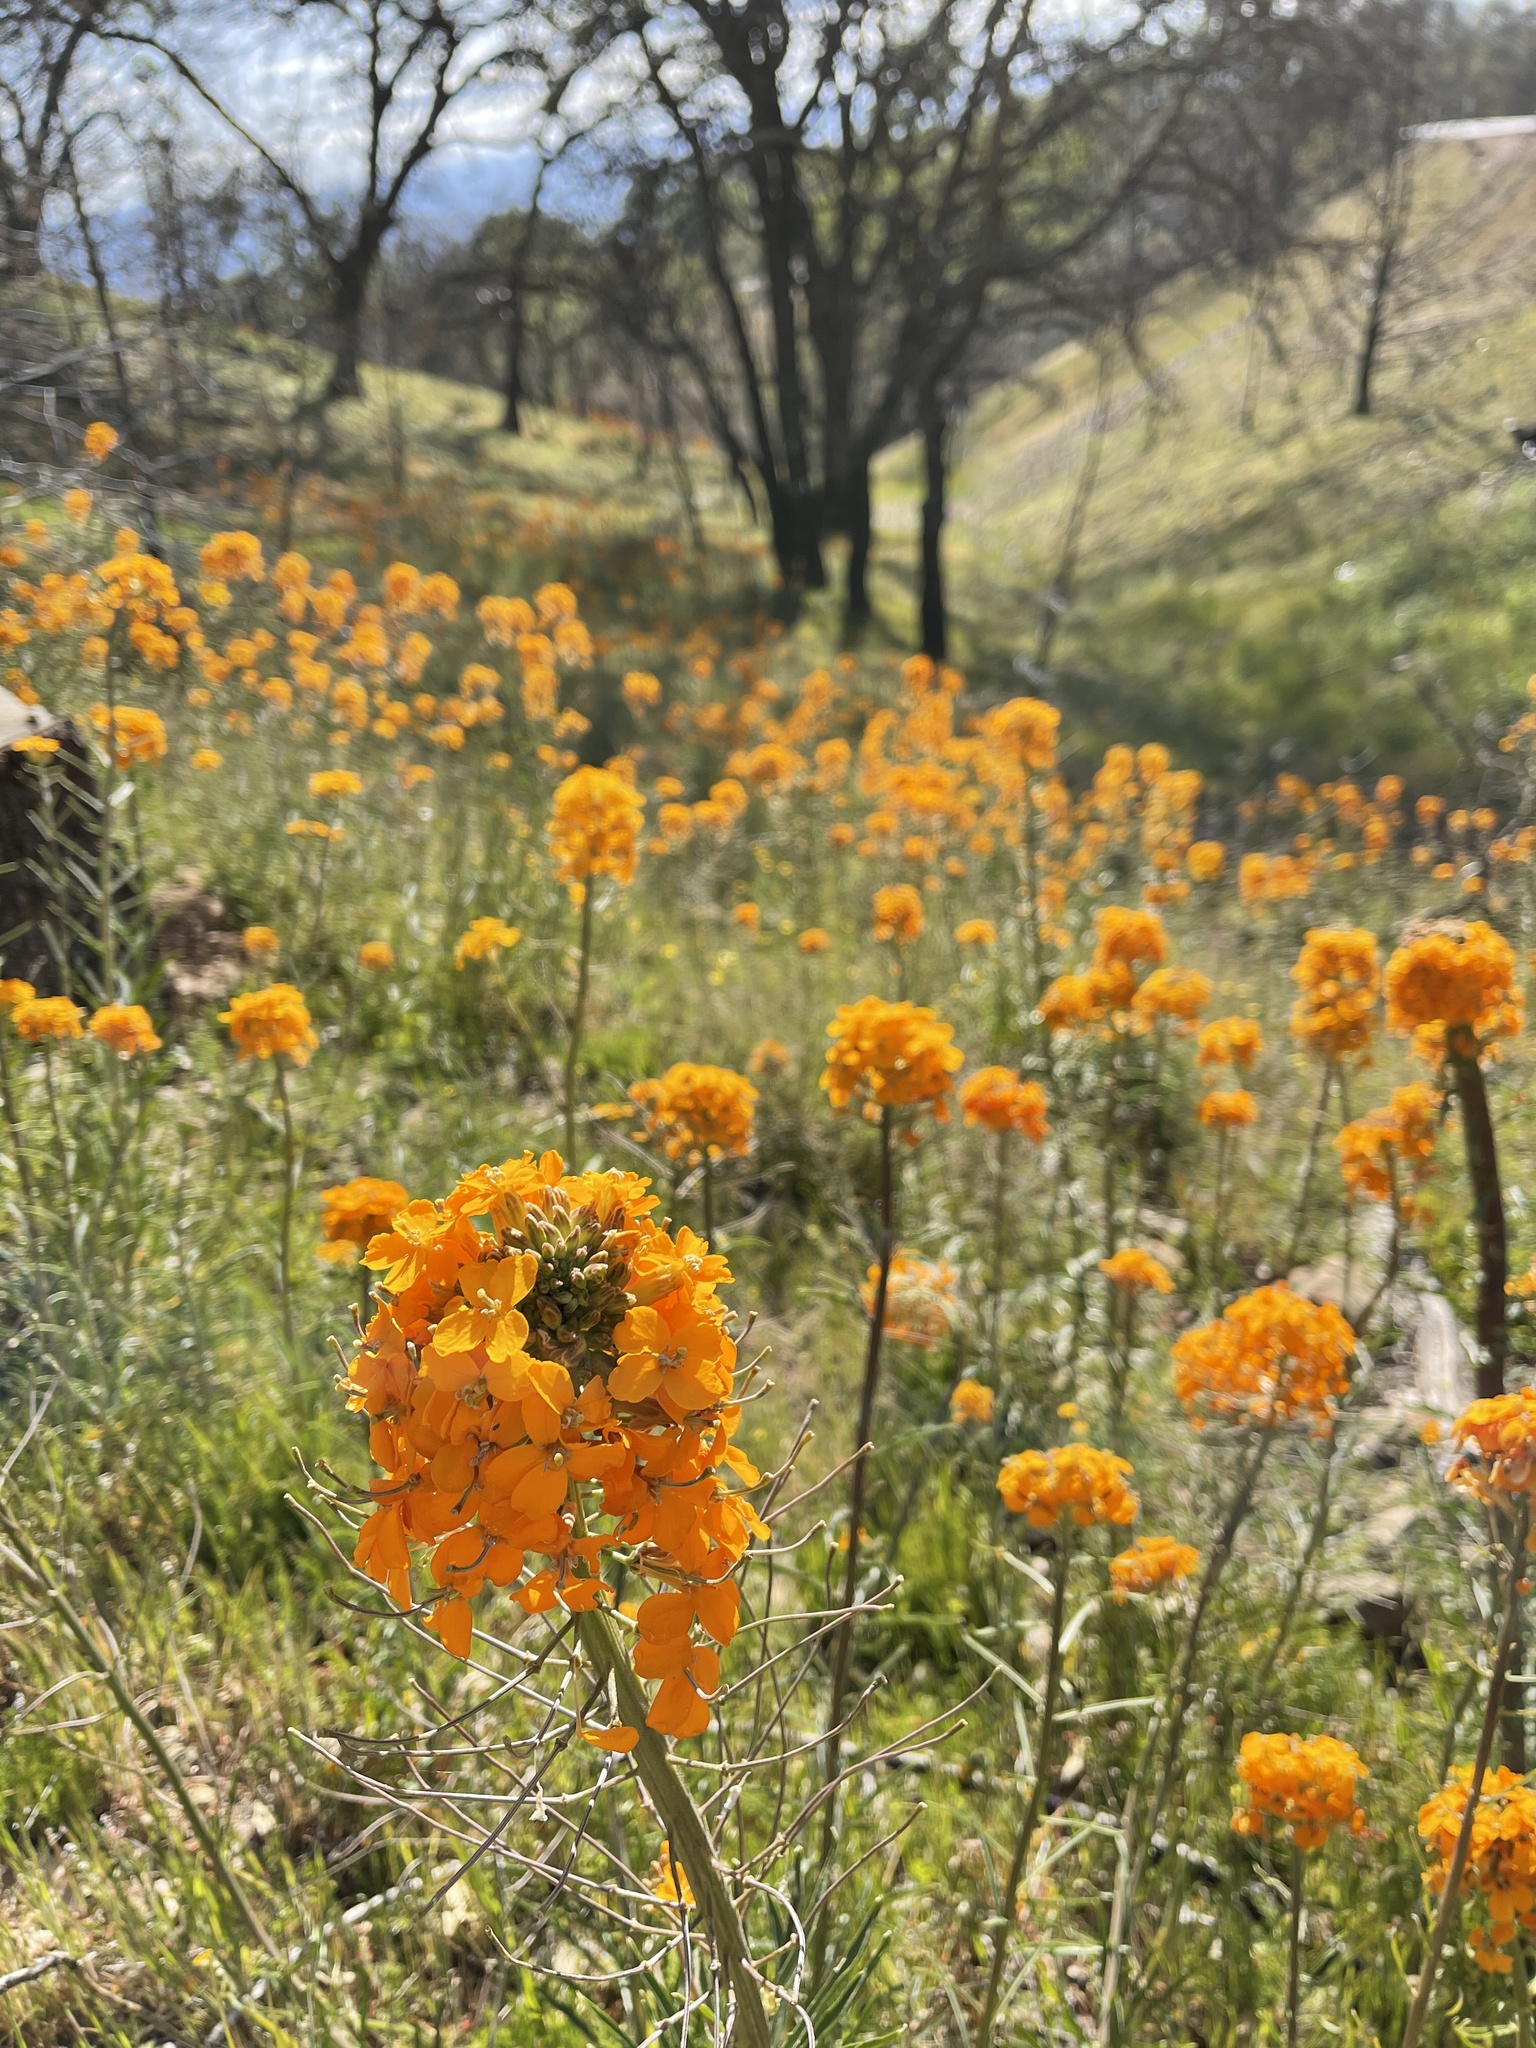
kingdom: Plantae
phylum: Tracheophyta
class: Magnoliopsida
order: Brassicales
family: Brassicaceae
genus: Erysimum
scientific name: Erysimum capitatum
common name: Western wallflower
